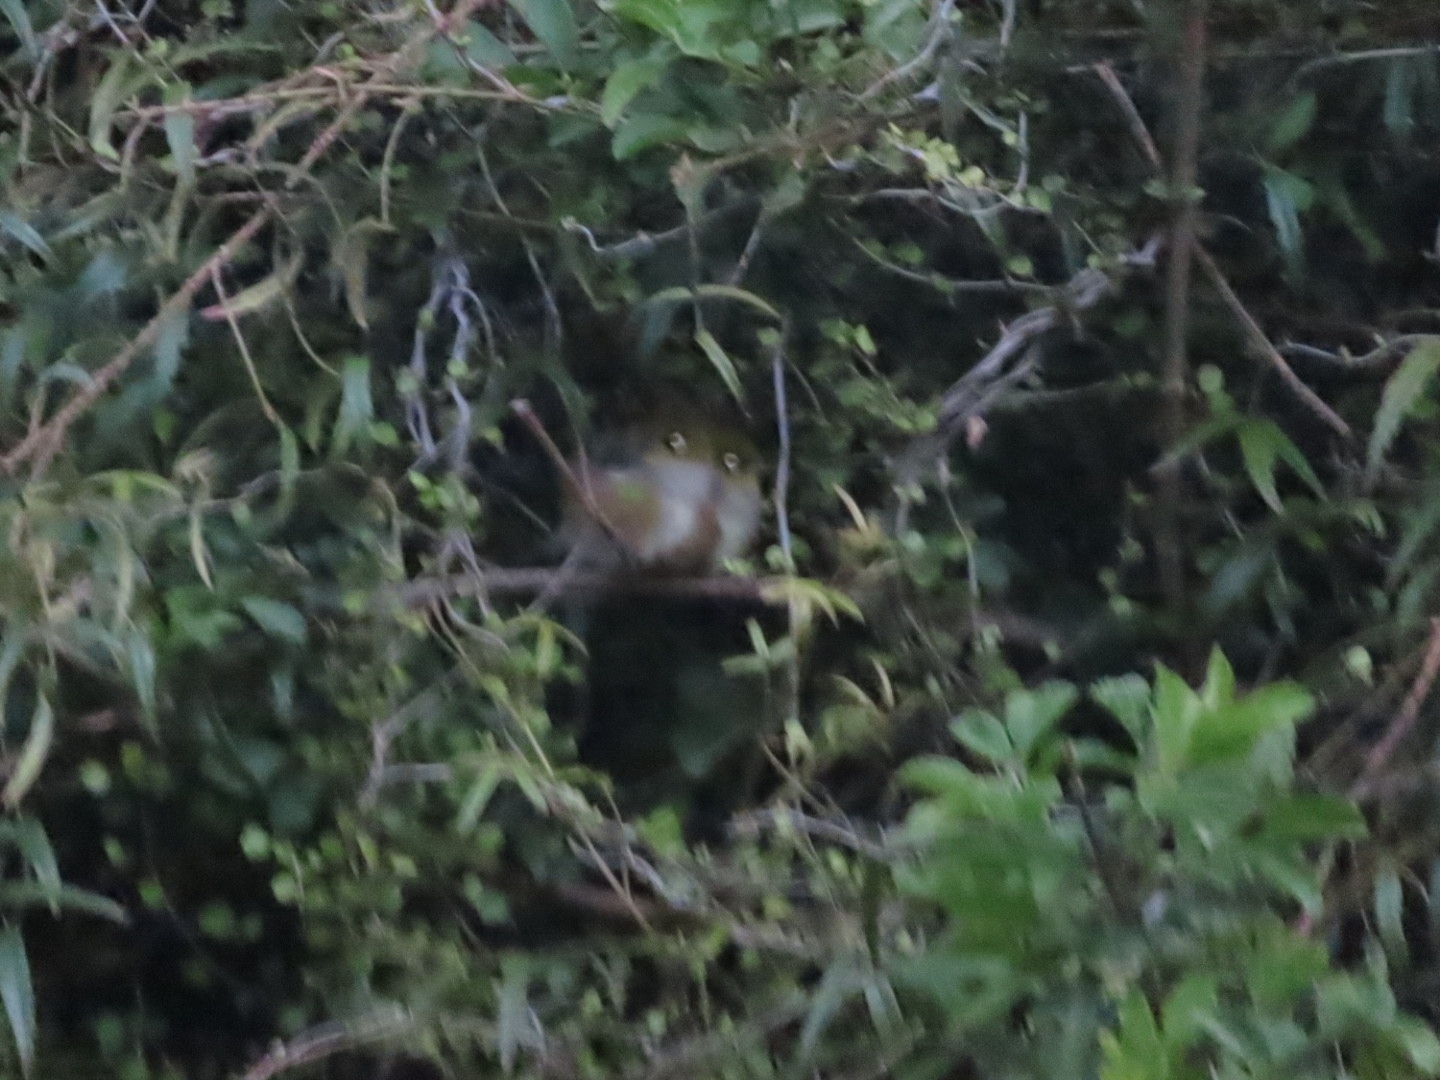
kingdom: Animalia
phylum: Chordata
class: Aves
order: Passeriformes
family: Zosteropidae
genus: Zosterops
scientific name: Zosterops lateralis
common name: Silvereye
